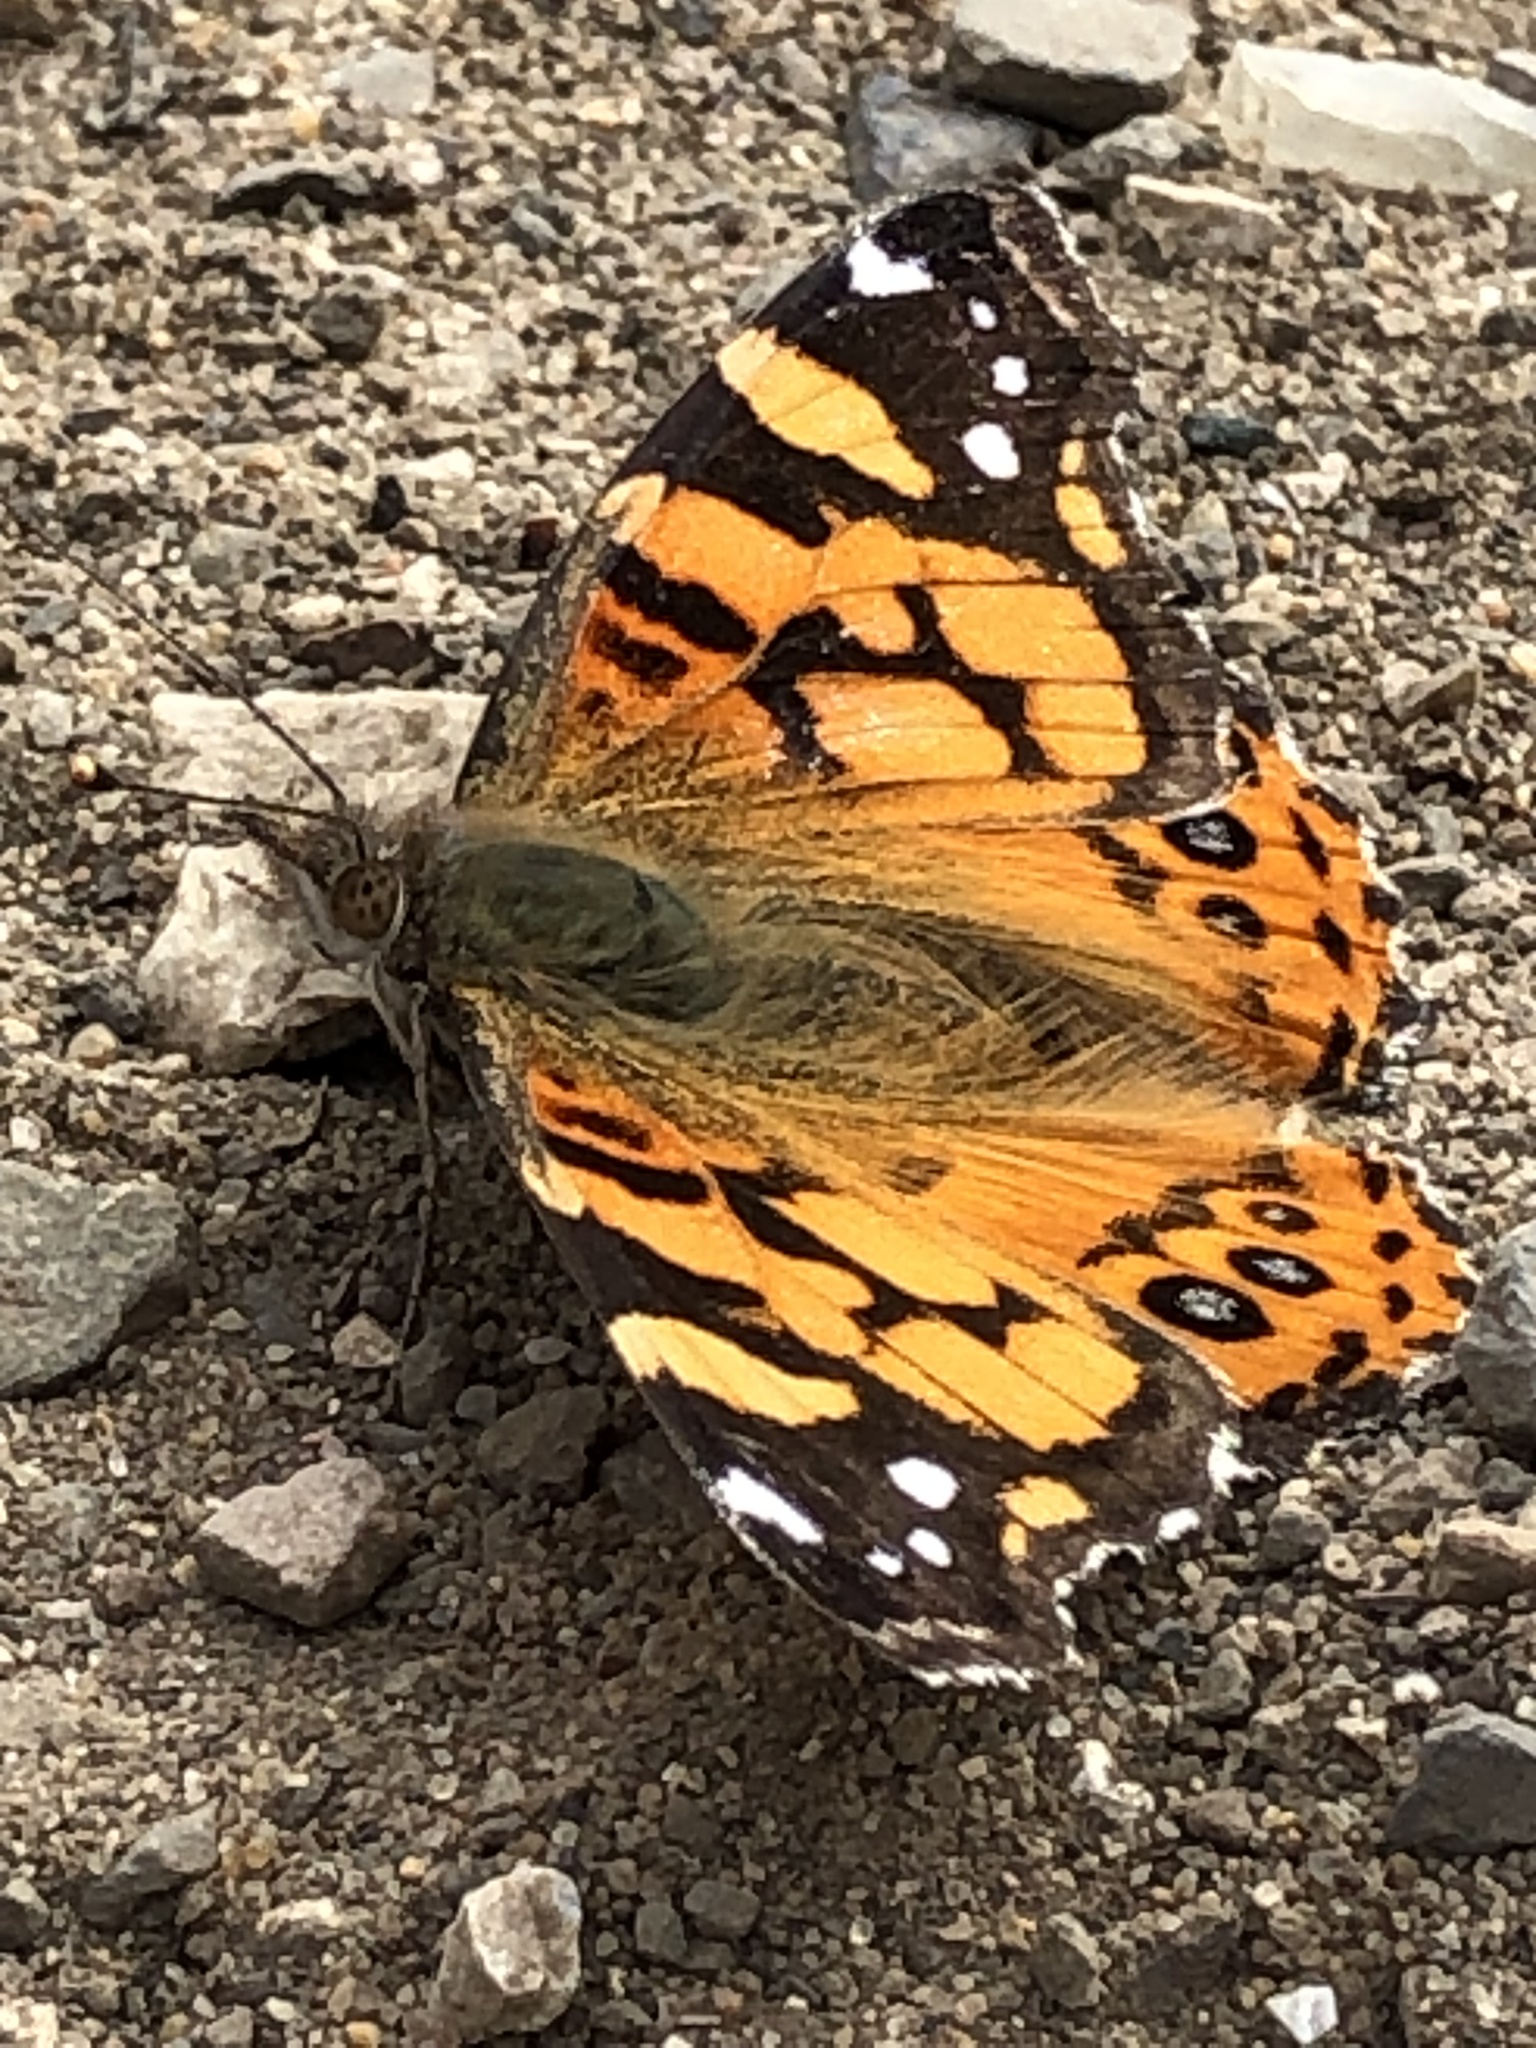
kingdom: Animalia
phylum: Arthropoda
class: Insecta
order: Lepidoptera
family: Nymphalidae
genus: Vanessa
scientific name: Vanessa annabella
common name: West coast lady
